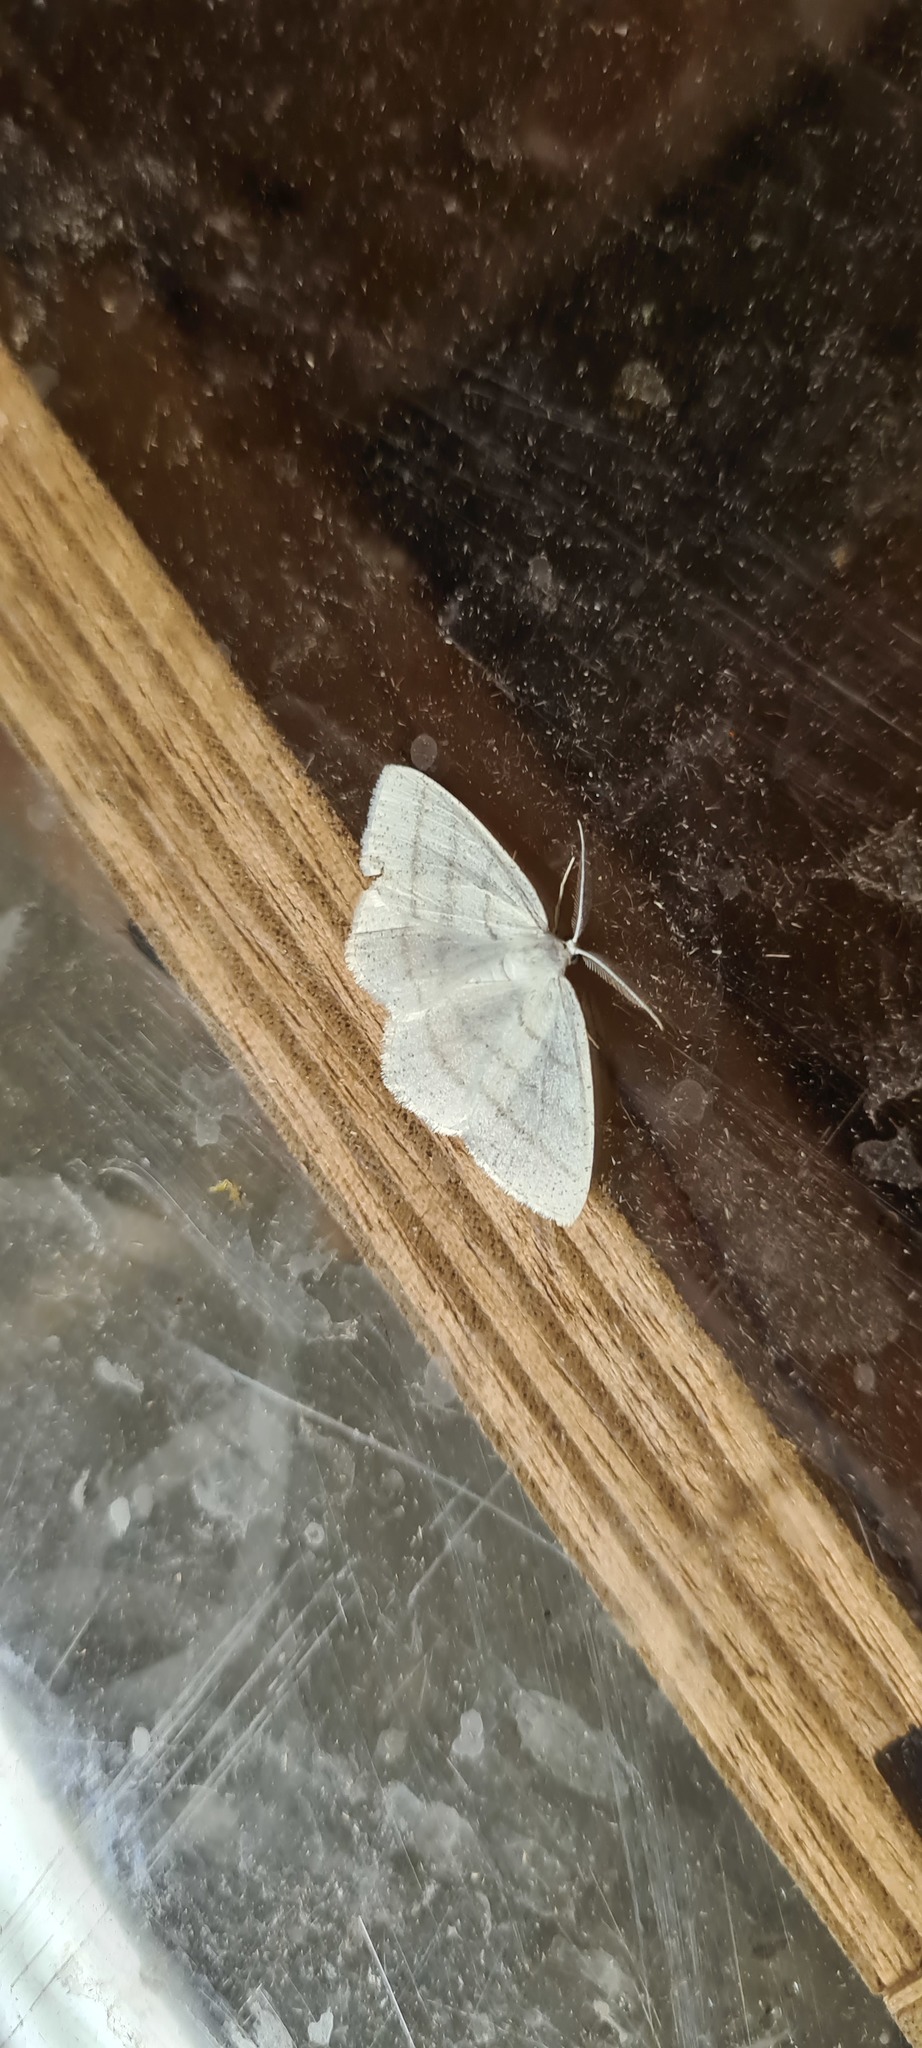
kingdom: Animalia
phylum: Arthropoda
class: Insecta
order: Lepidoptera
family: Geometridae
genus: Cabera
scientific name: Cabera pusaria
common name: Common white wave
